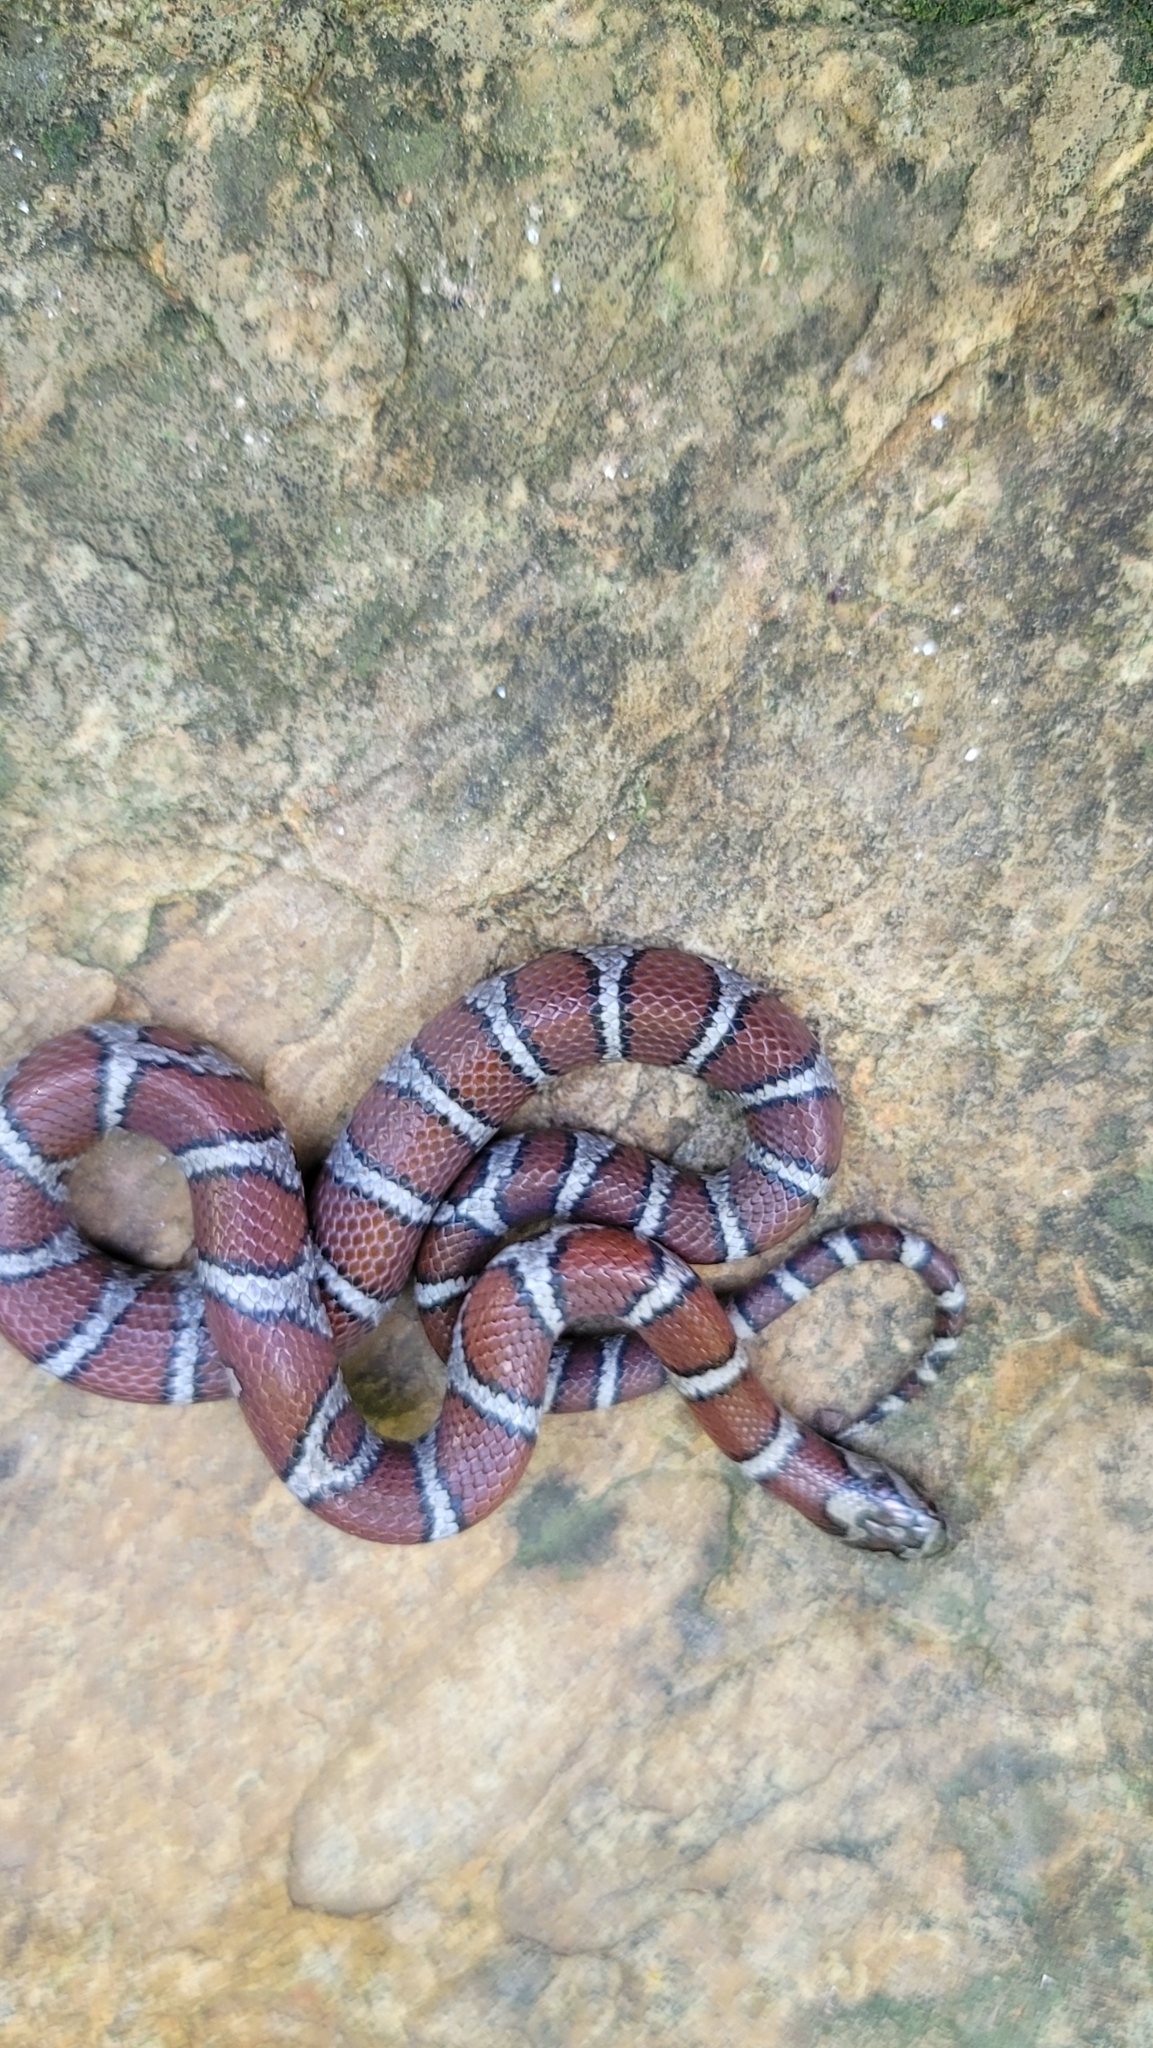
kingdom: Animalia
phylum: Chordata
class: Squamata
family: Colubridae
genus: Lampropeltis
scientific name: Lampropeltis triangulum
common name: Eastern milksnake
